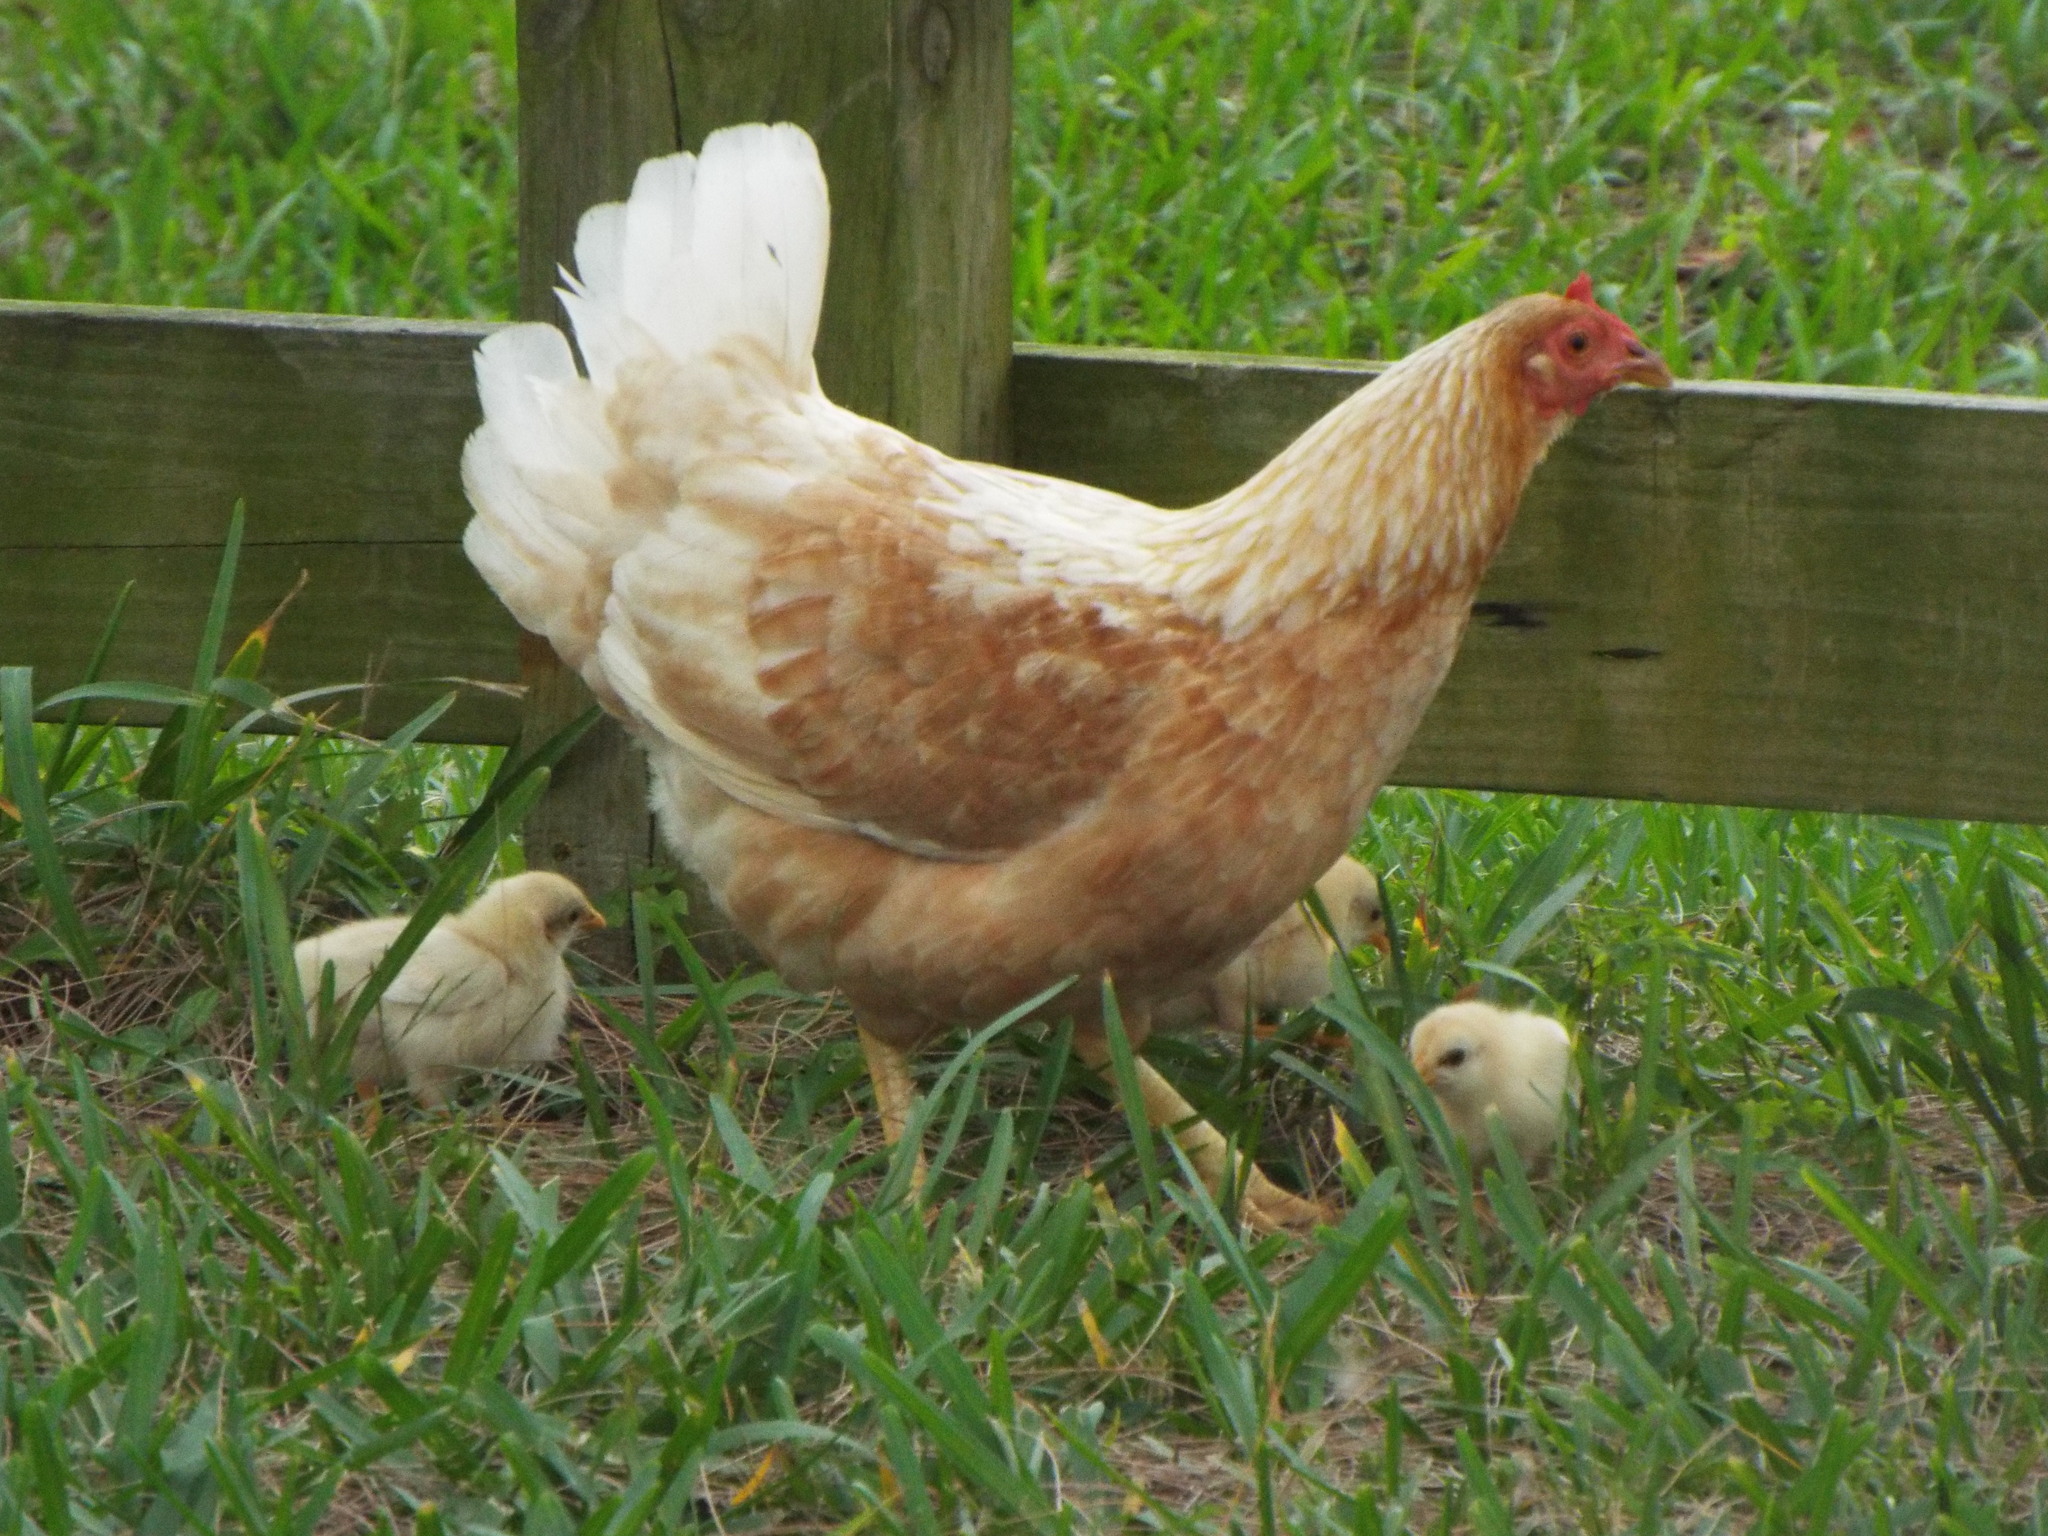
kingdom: Animalia
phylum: Chordata
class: Aves
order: Galliformes
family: Phasianidae
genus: Gallus
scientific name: Gallus gallus
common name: Red junglefowl
